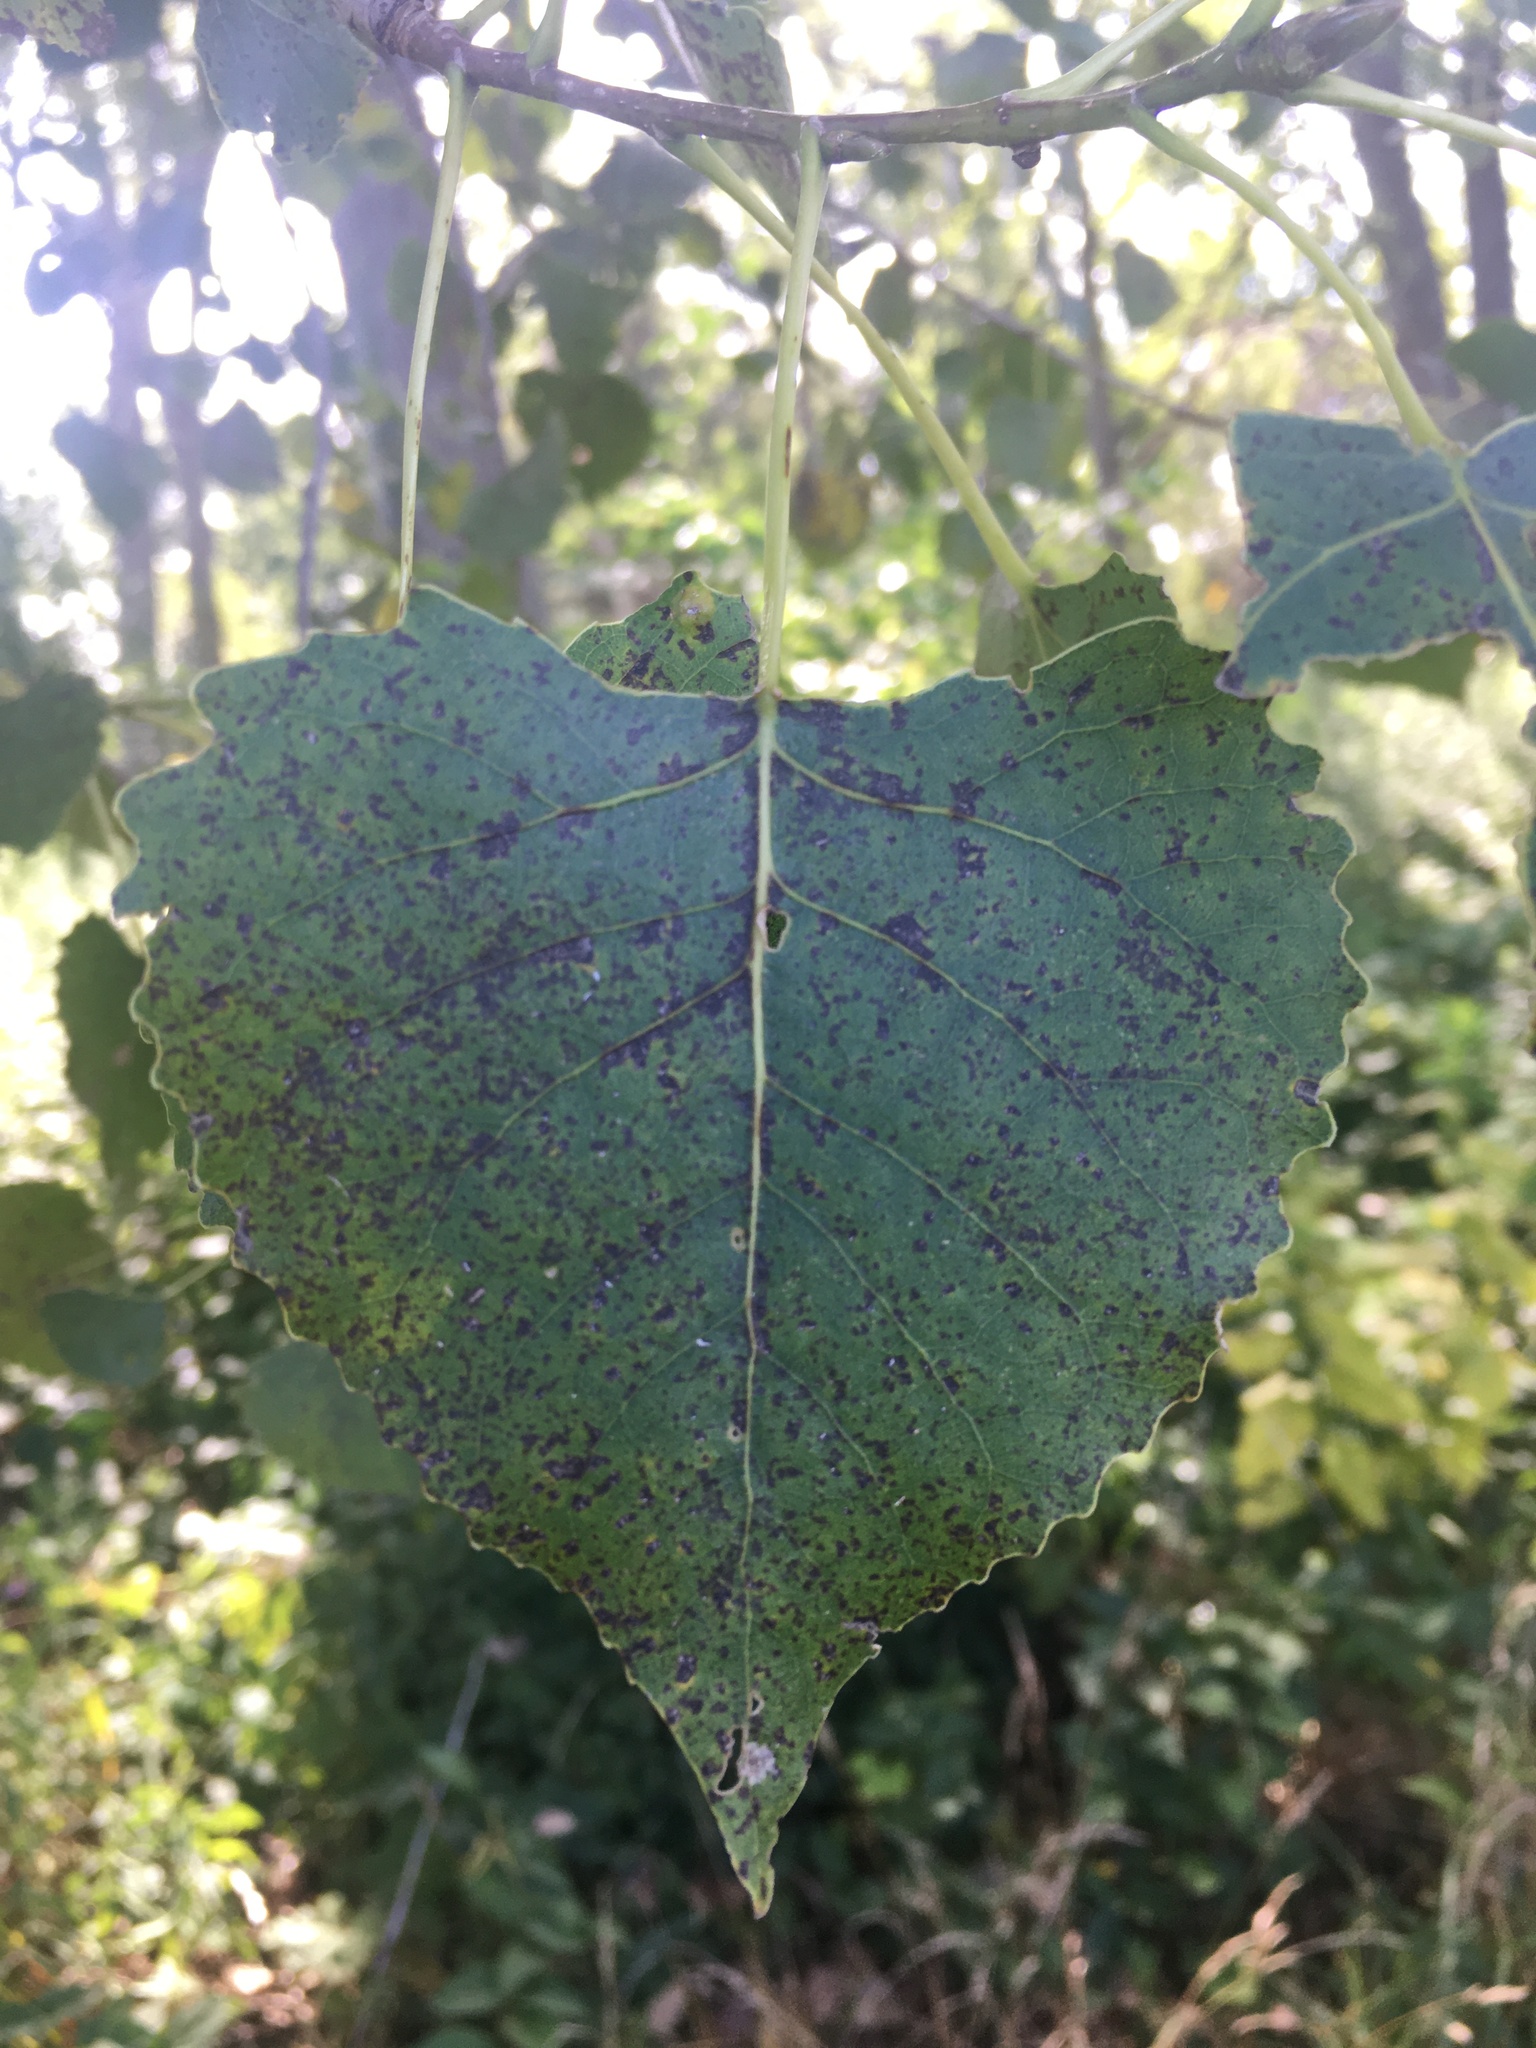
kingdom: Plantae
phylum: Tracheophyta
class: Magnoliopsida
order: Malpighiales
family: Salicaceae
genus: Populus
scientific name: Populus deltoides
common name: Eastern cottonwood
